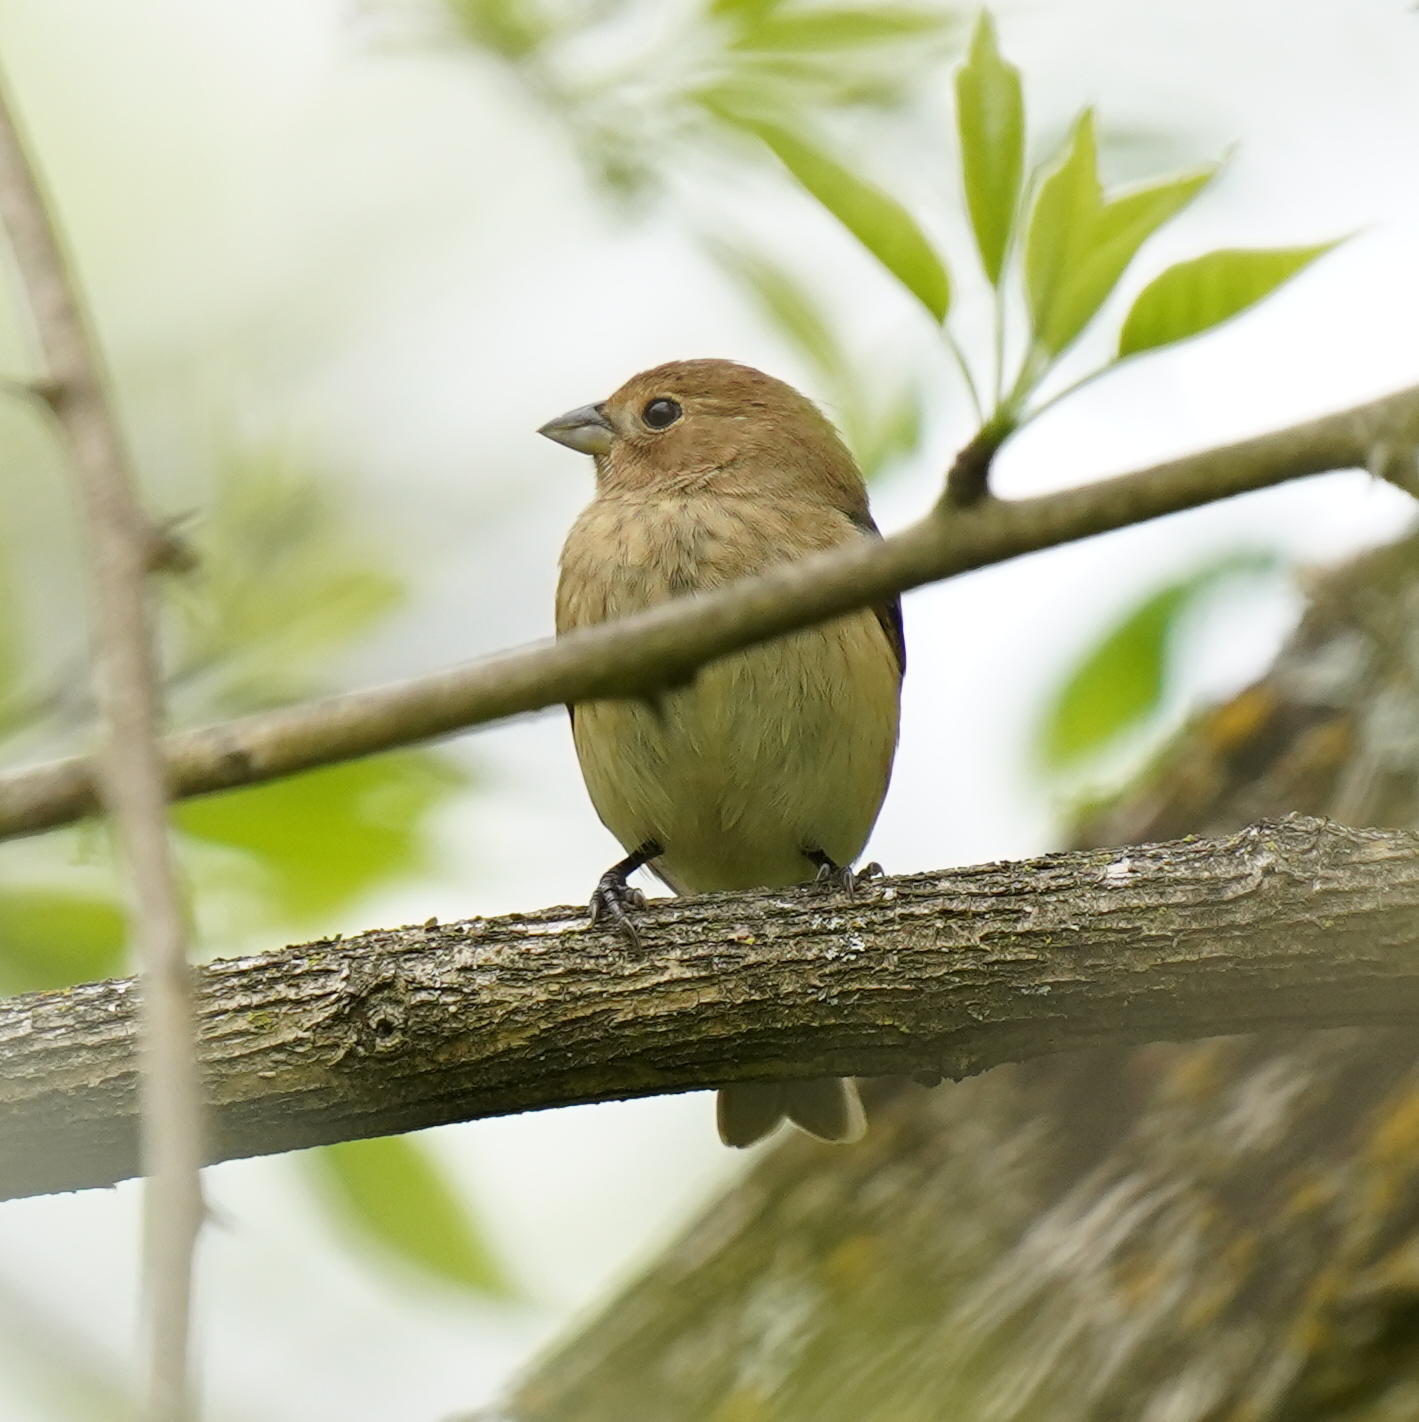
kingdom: Animalia
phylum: Chordata
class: Aves
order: Passeriformes
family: Cardinalidae
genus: Passerina
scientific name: Passerina cyanea
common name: Indigo bunting
